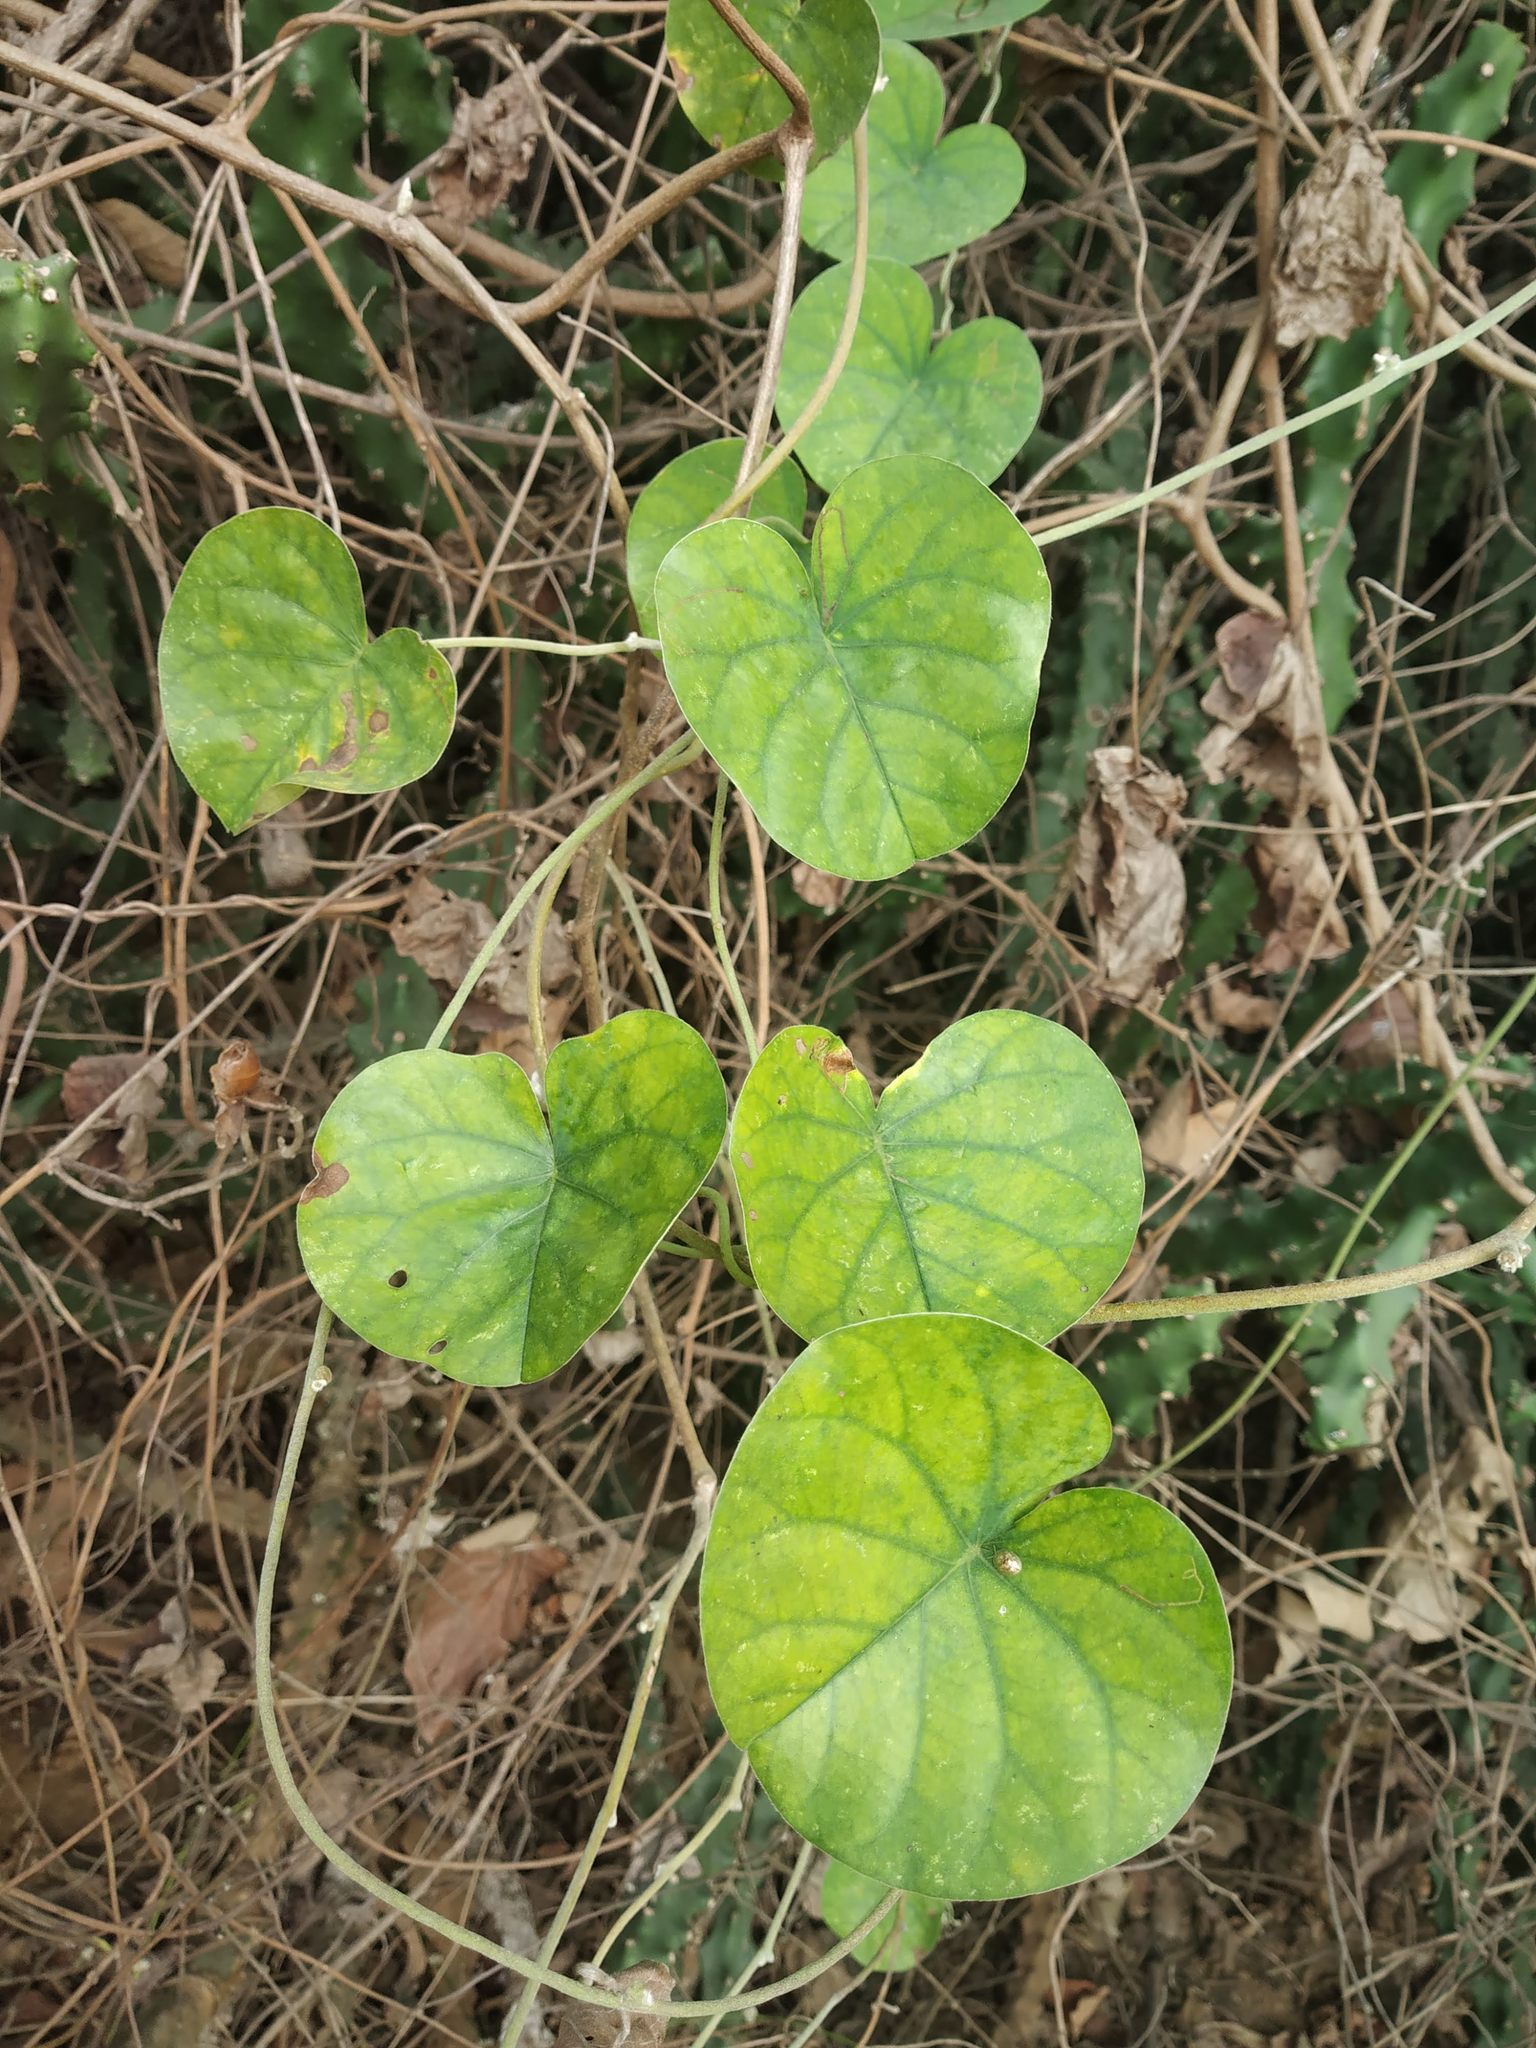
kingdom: Plantae
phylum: Tracheophyta
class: Magnoliopsida
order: Solanales
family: Convolvulaceae
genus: Rivea
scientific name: Rivea hypocrateriformis
